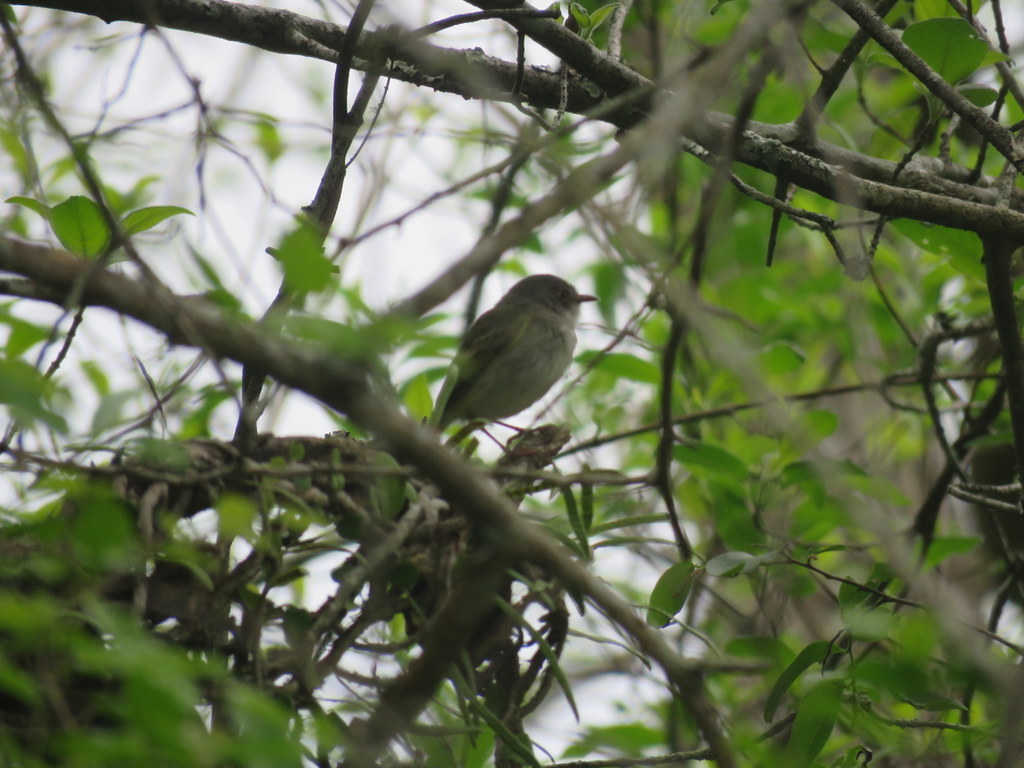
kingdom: Animalia
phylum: Chordata
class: Aves
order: Passeriformes
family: Tyrannidae
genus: Hemitriccus
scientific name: Hemitriccus margaritaceiventer
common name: Pearly-vented tody-tyrant
